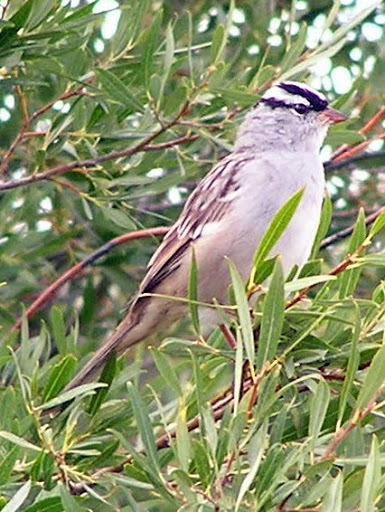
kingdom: Animalia
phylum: Chordata
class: Aves
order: Passeriformes
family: Passerellidae
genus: Zonotrichia
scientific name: Zonotrichia leucophrys
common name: White-crowned sparrow
